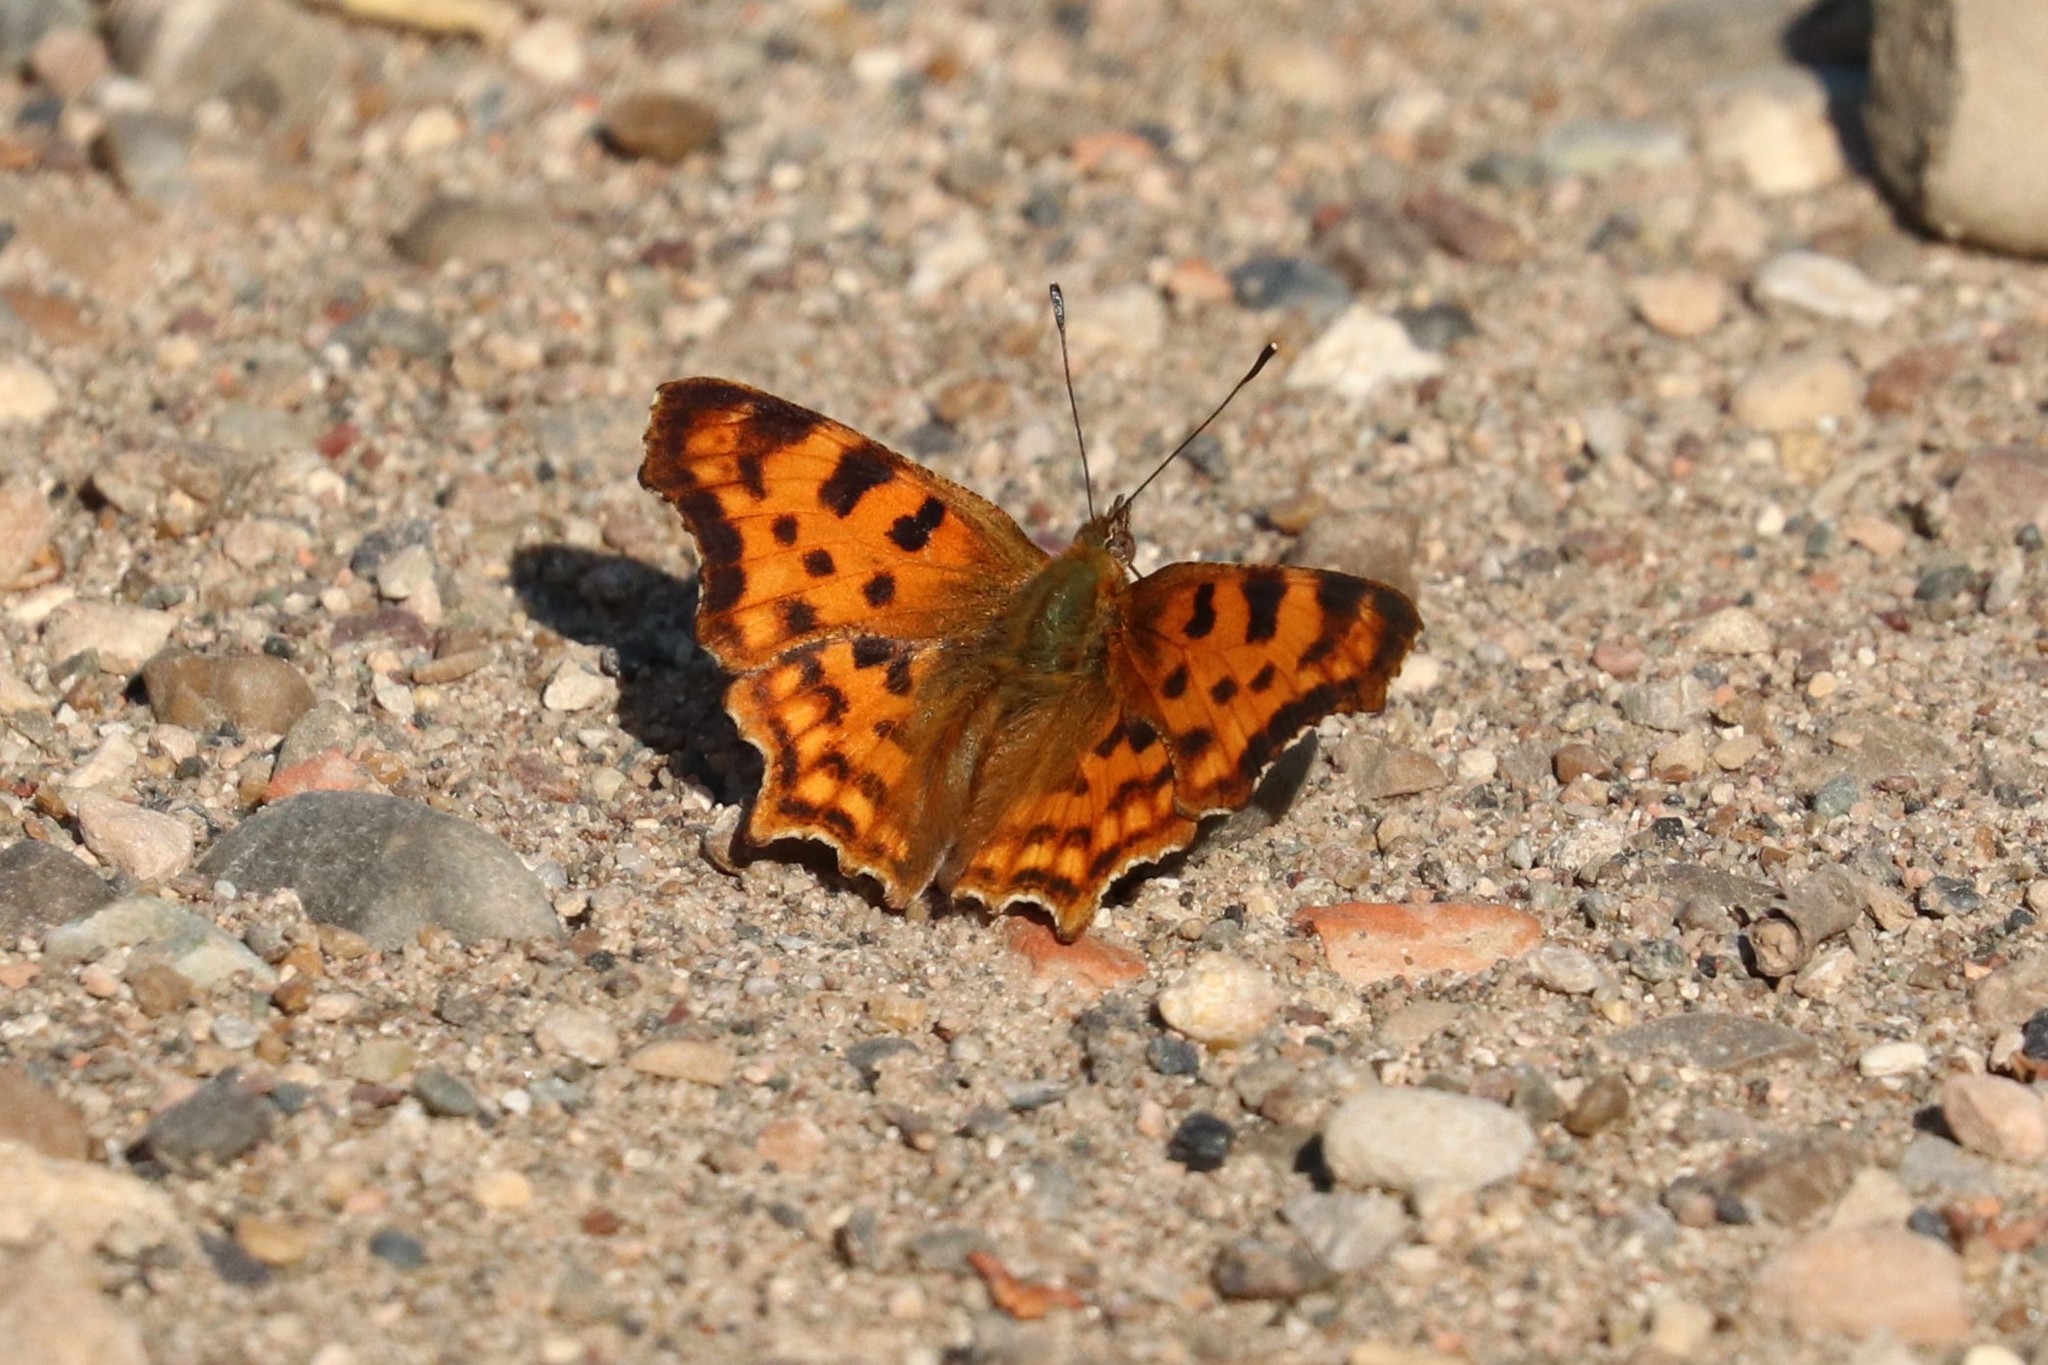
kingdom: Animalia
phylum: Arthropoda
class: Insecta
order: Lepidoptera
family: Nymphalidae
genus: Polygonia
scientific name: Polygonia c-album
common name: Comma
